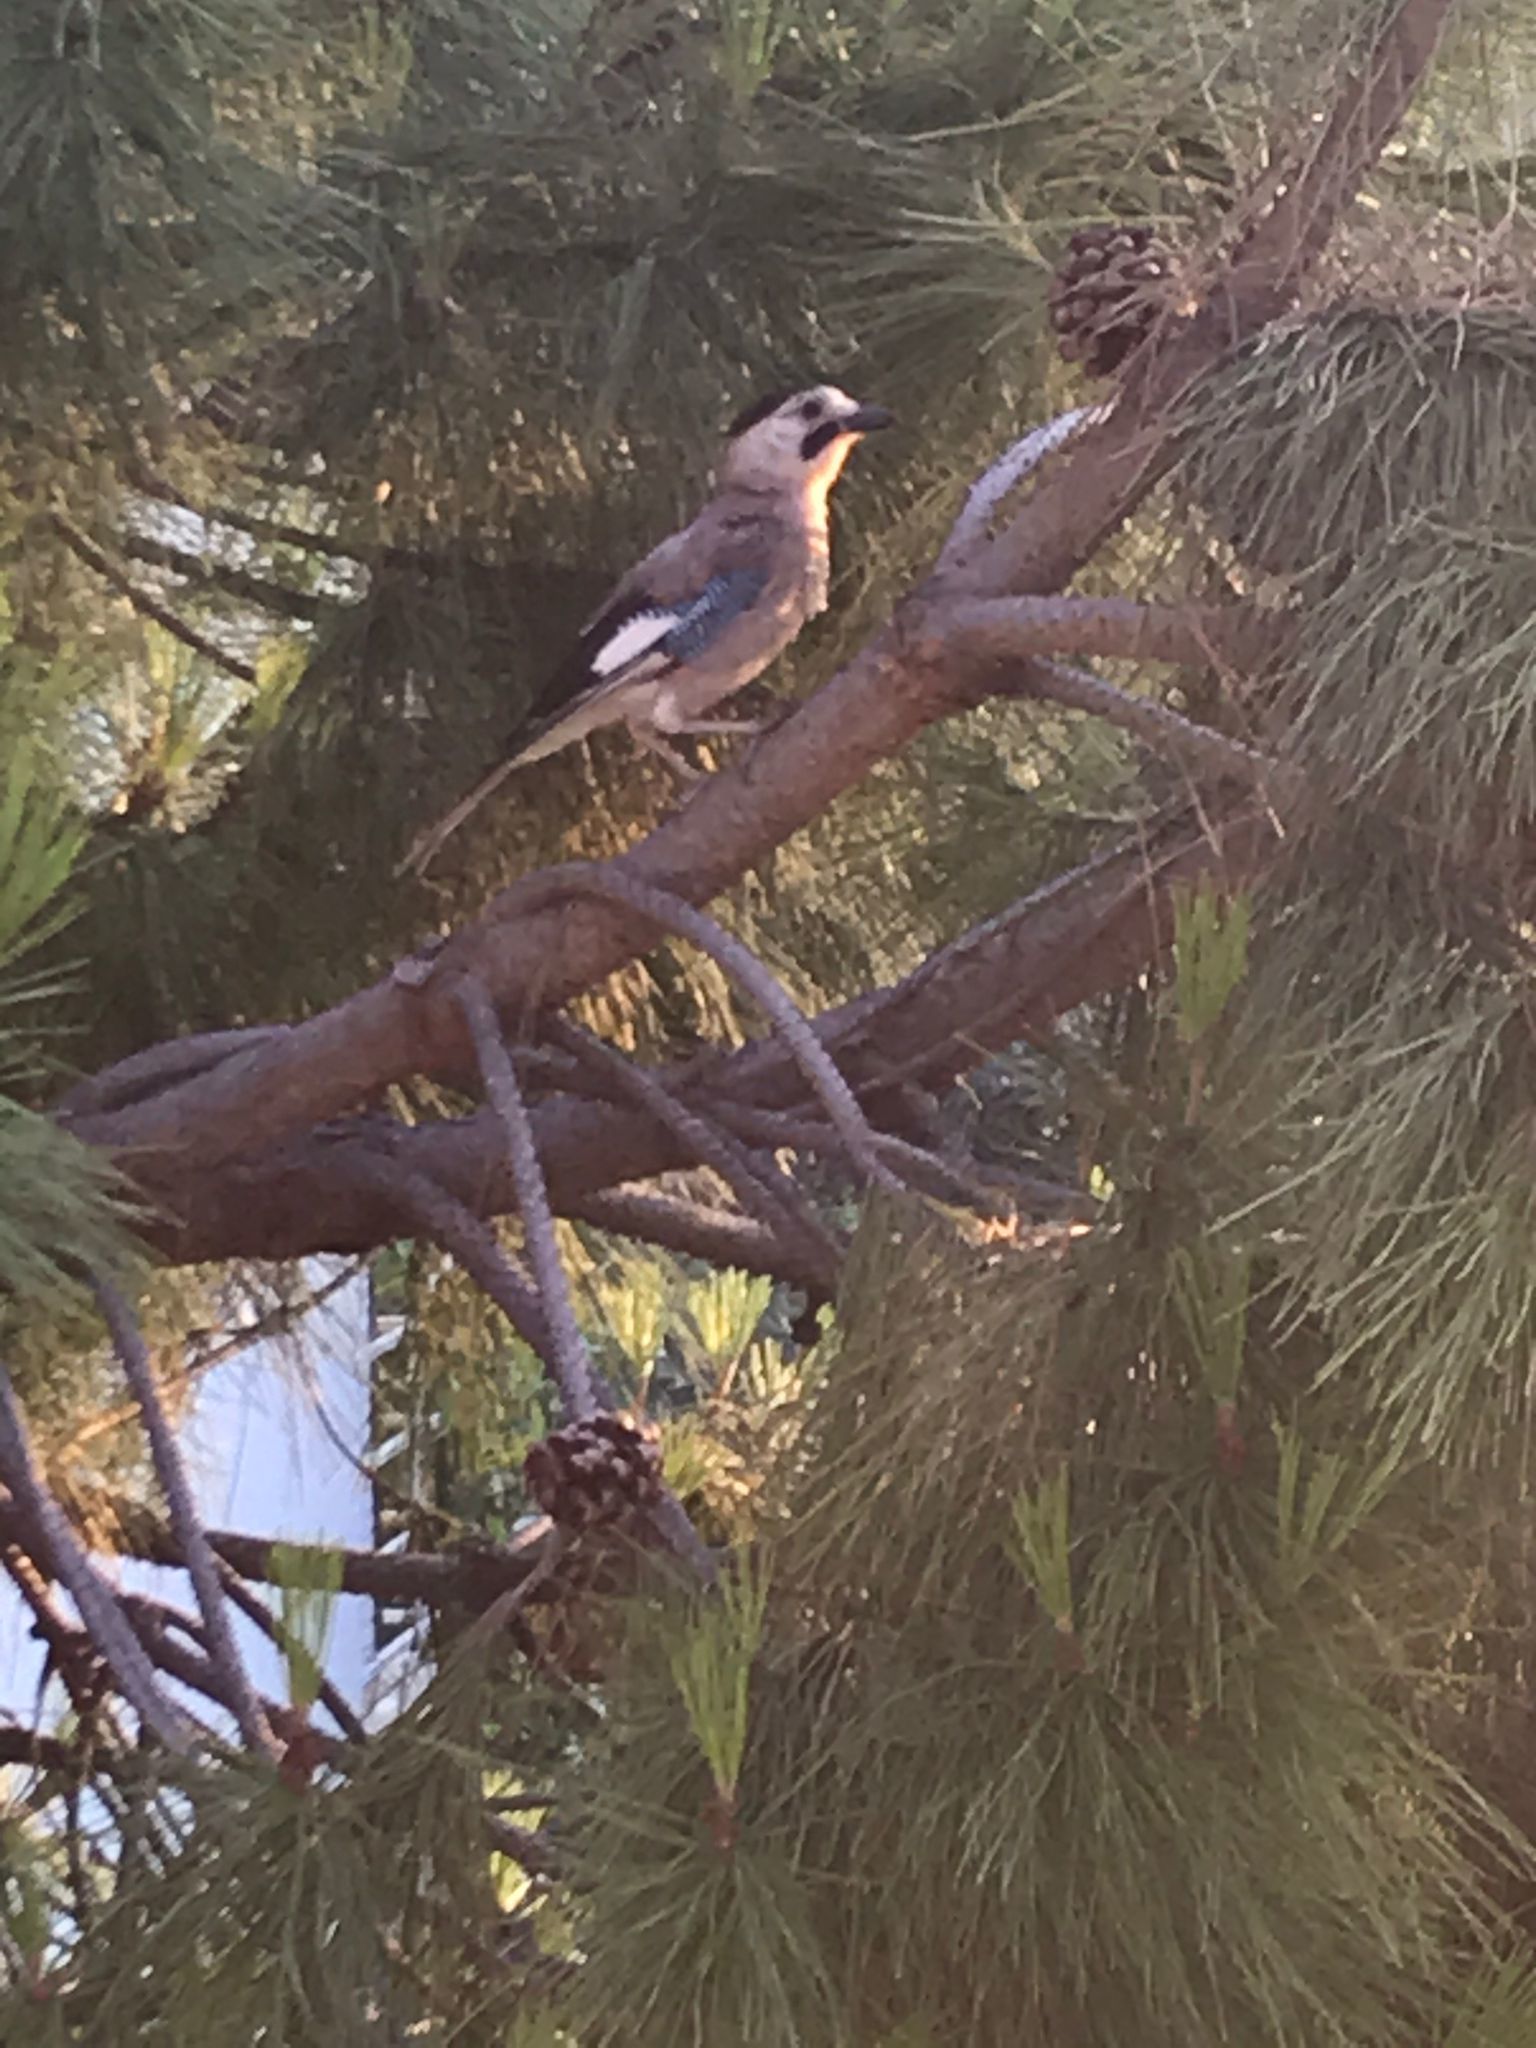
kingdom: Animalia
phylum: Chordata
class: Aves
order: Passeriformes
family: Corvidae
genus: Garrulus
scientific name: Garrulus glandarius
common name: Eurasian jay
